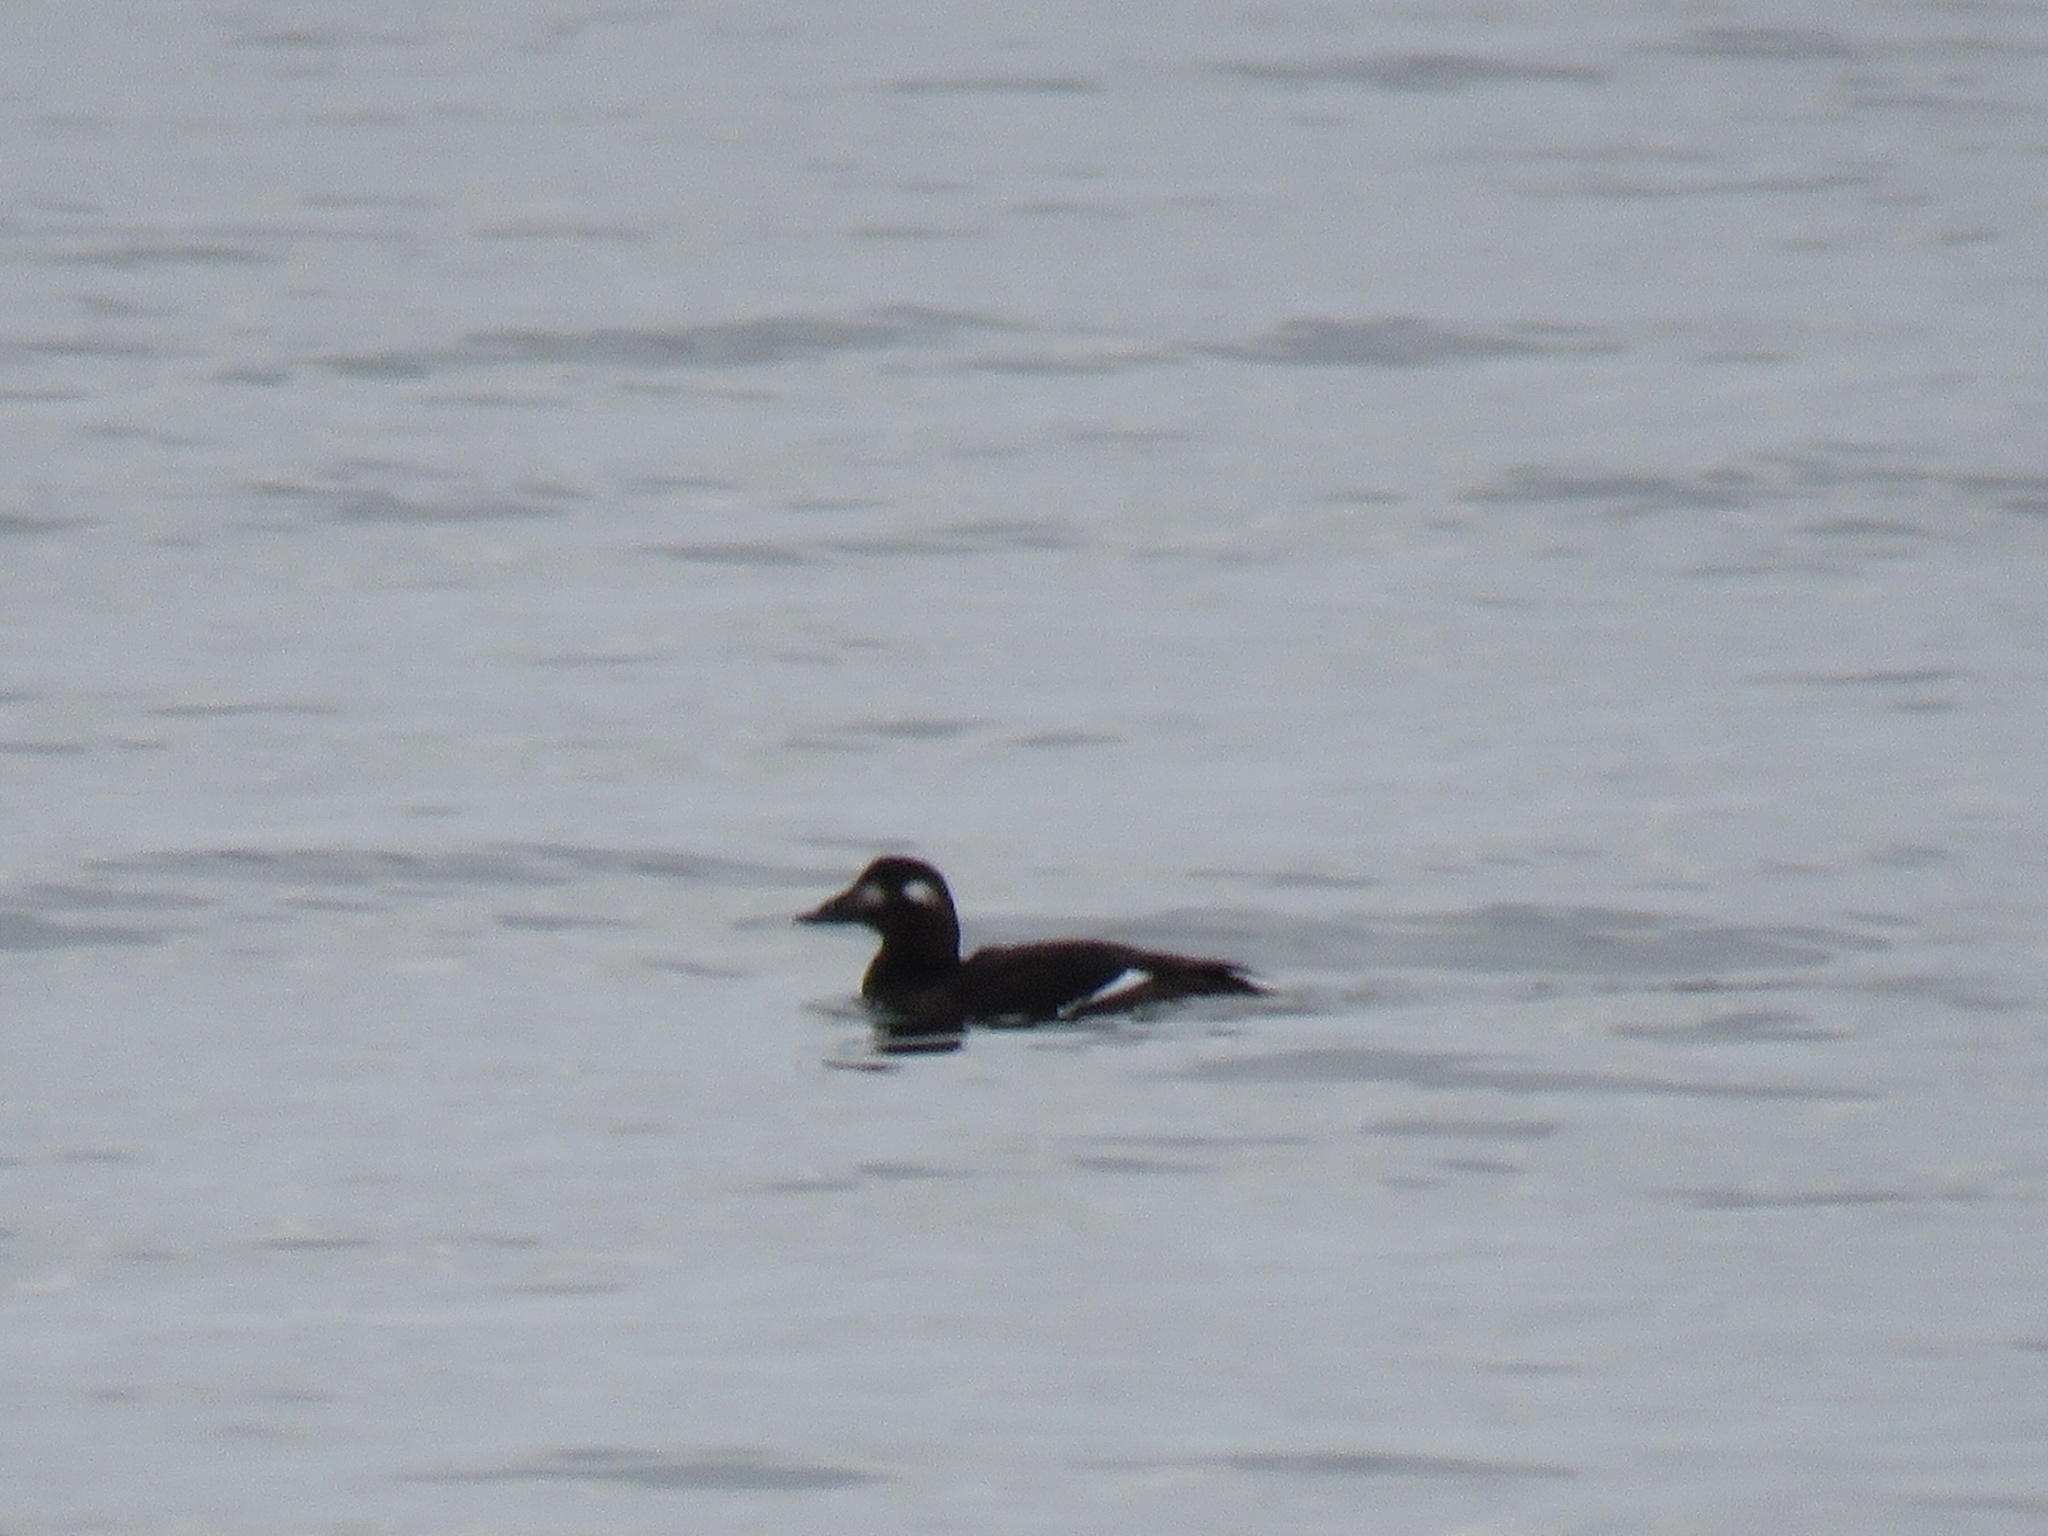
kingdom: Animalia
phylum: Chordata
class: Aves
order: Anseriformes
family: Anatidae
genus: Melanitta
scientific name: Melanitta deglandi
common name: White-winged scoter
